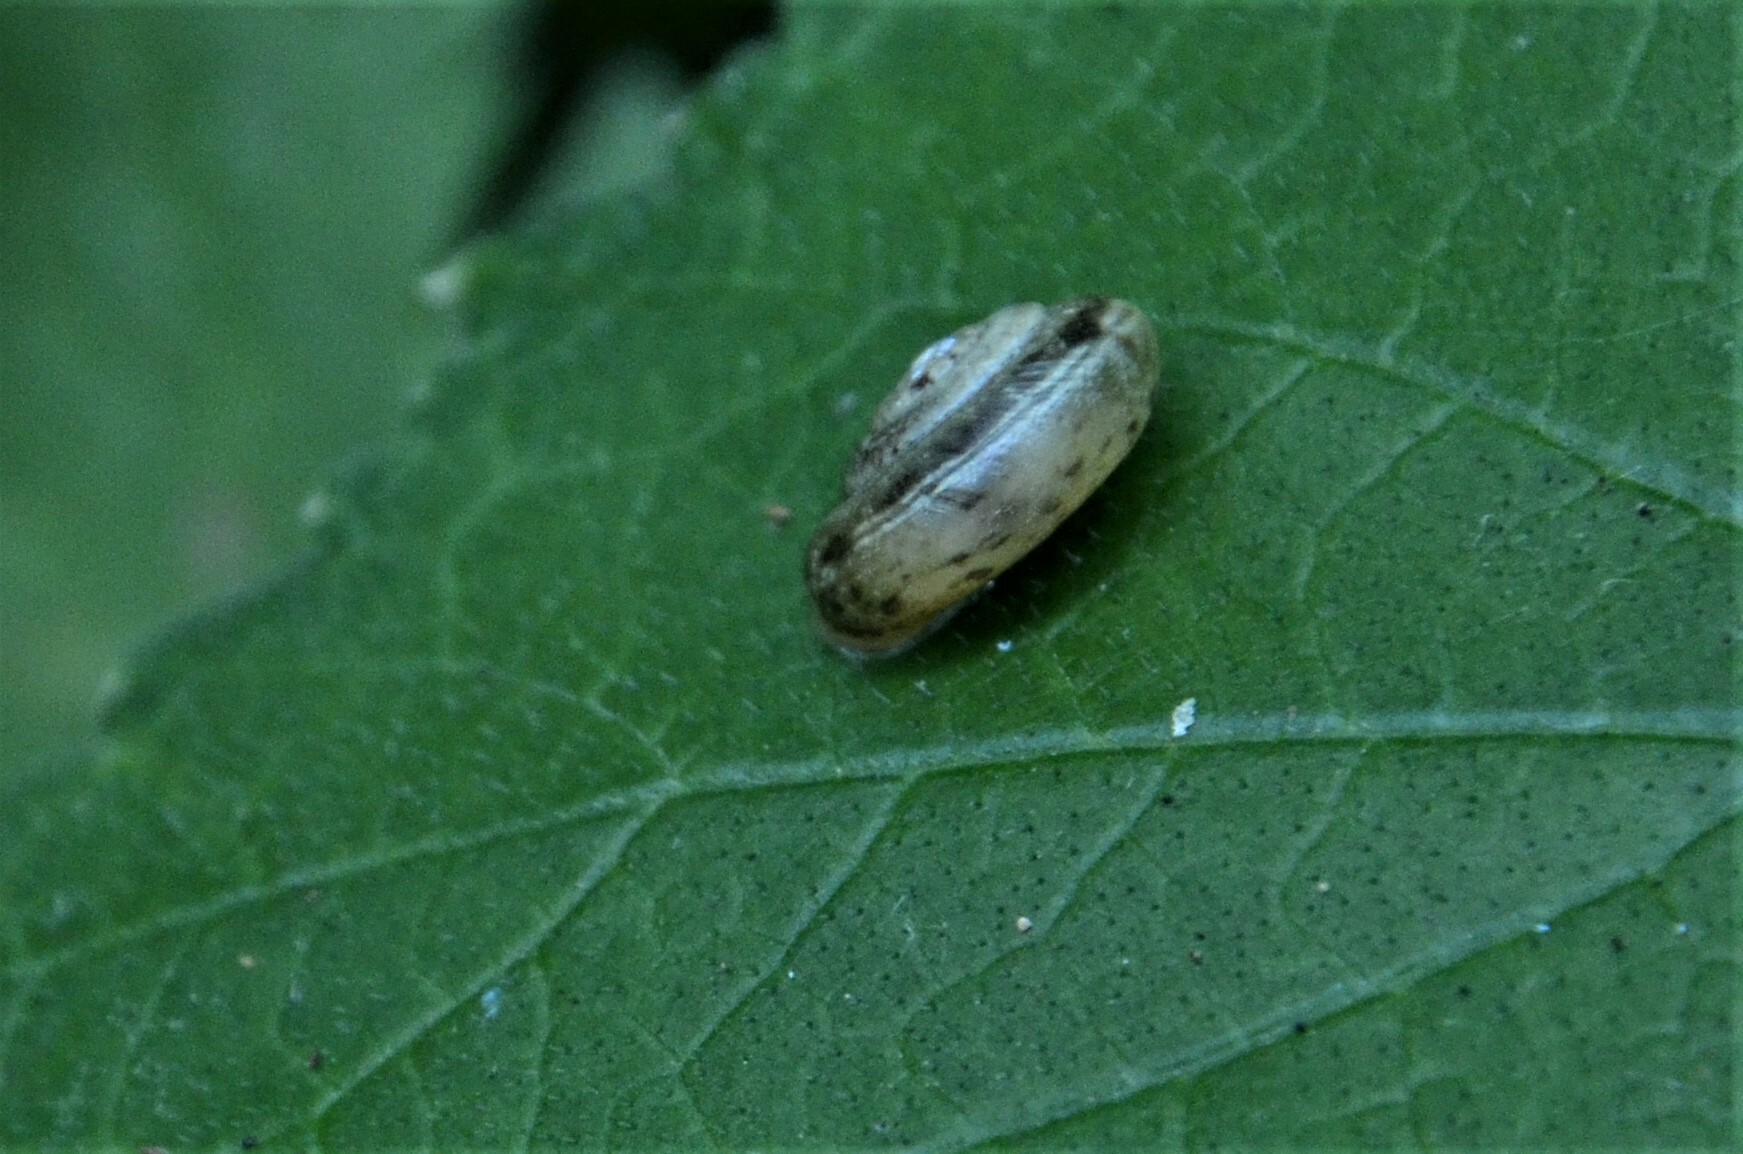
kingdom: Animalia
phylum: Mollusca
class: Gastropoda
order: Stylommatophora
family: Hygromiidae
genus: Urticicola
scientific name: Urticicola umbrosus
